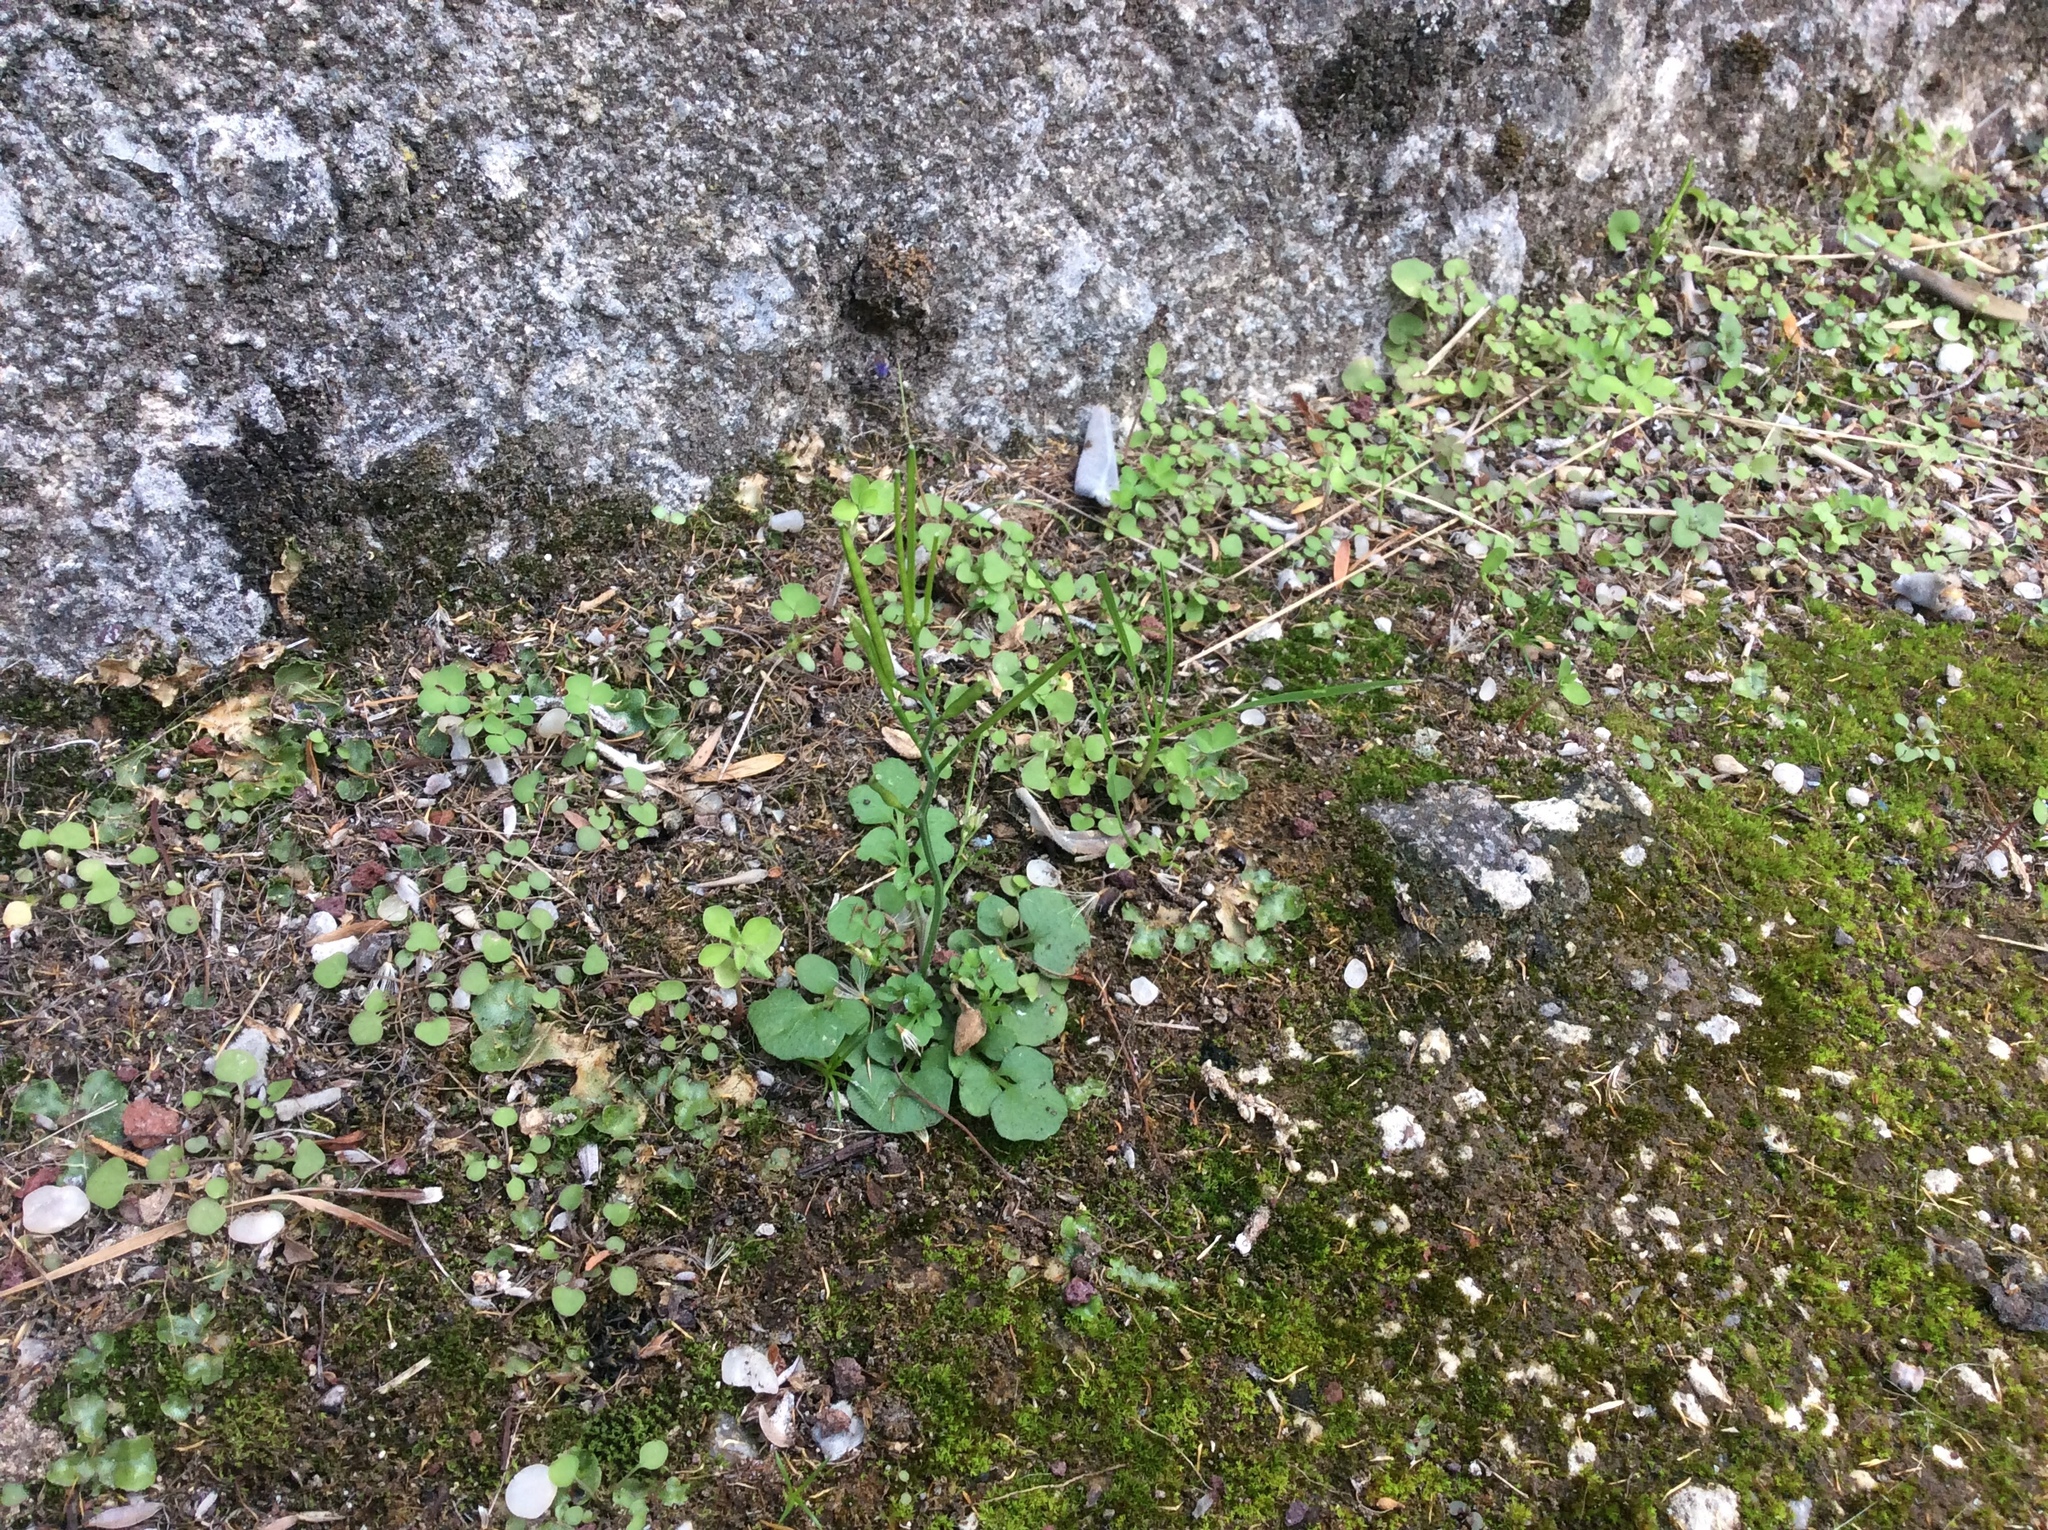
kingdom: Plantae
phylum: Tracheophyta
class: Magnoliopsida
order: Brassicales
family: Brassicaceae
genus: Cardamine
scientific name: Cardamine hirsuta
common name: Hairy bittercress
